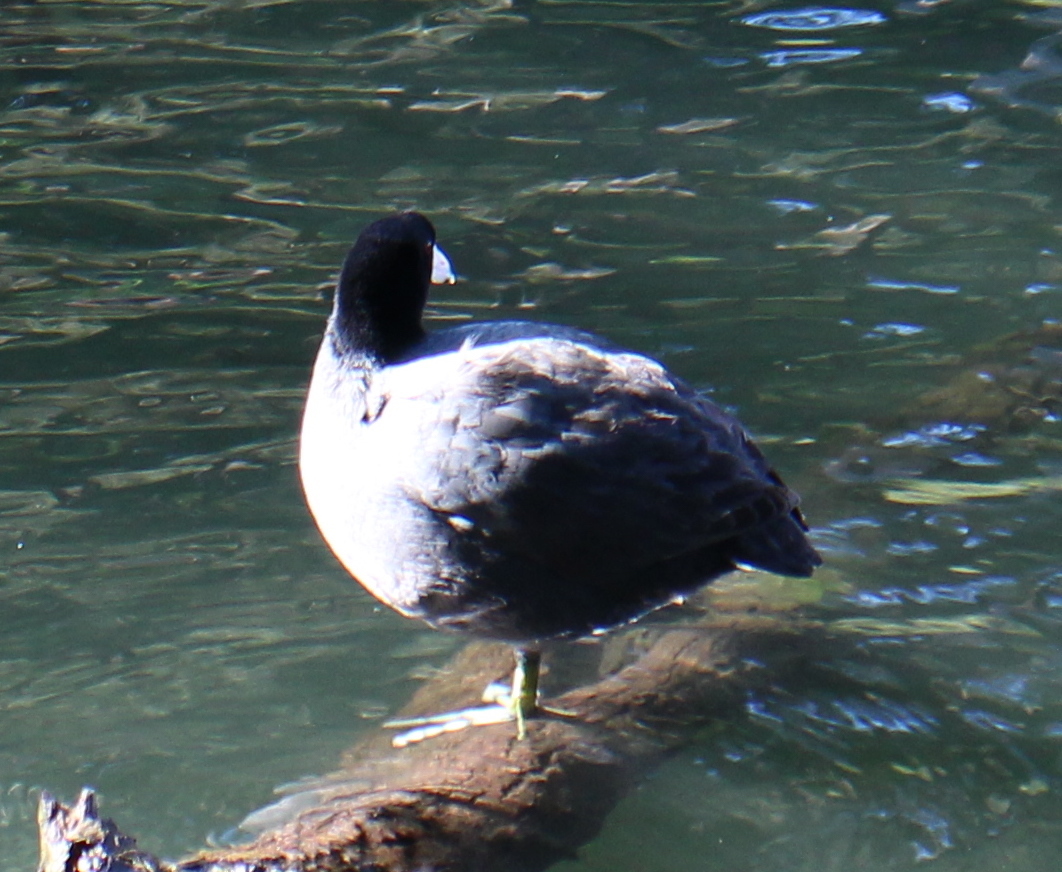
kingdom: Animalia
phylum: Chordata
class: Aves
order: Gruiformes
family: Rallidae
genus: Fulica
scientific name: Fulica americana
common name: American coot
